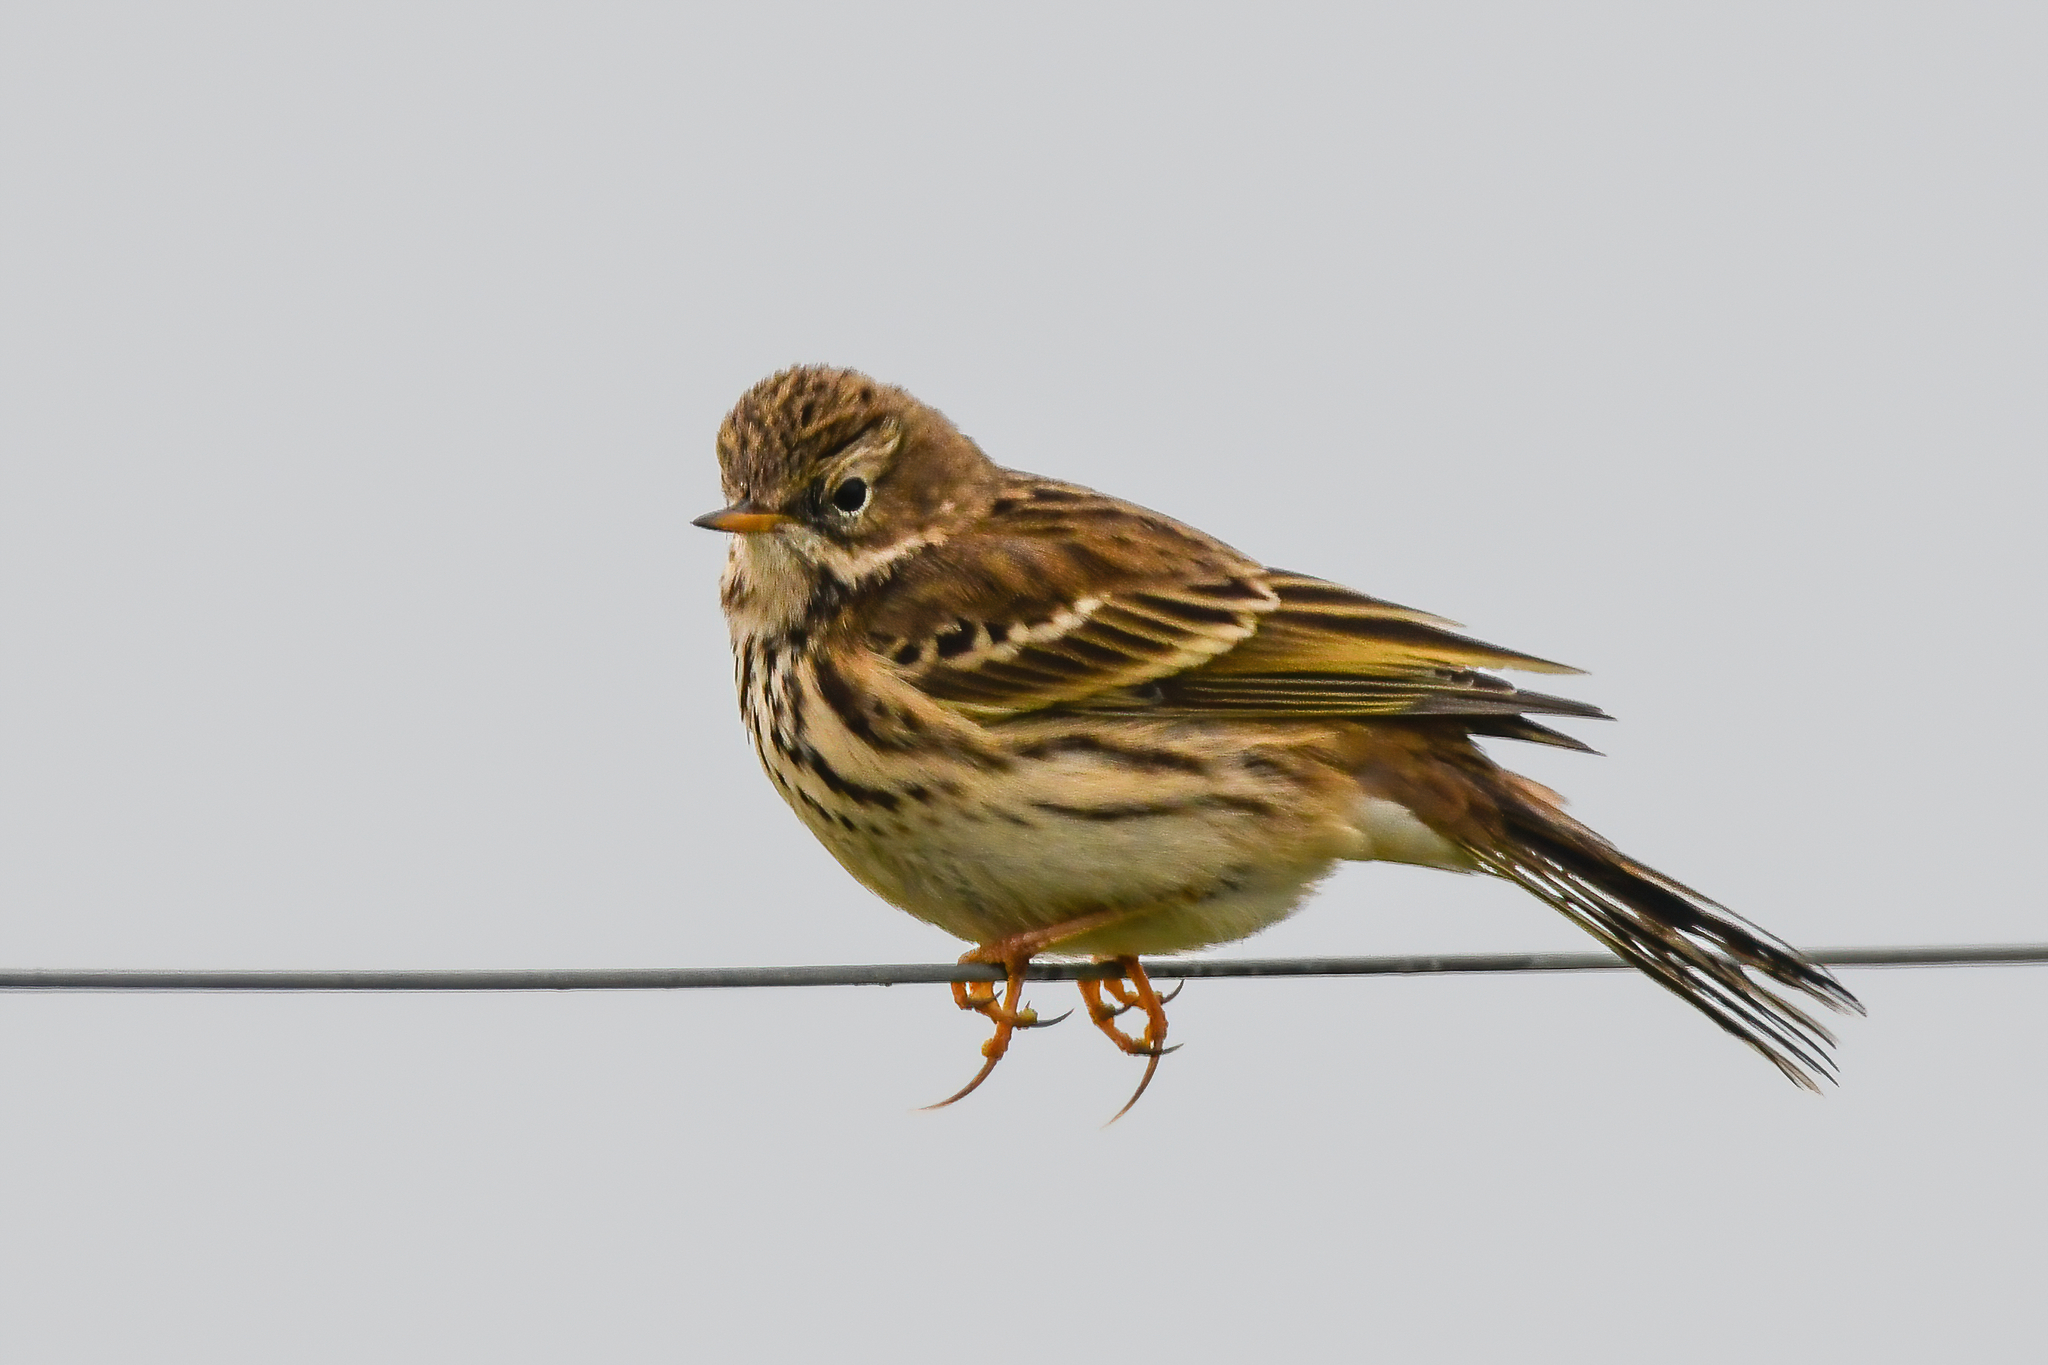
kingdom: Animalia
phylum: Chordata
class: Aves
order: Passeriformes
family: Motacillidae
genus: Anthus
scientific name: Anthus pratensis
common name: Meadow pipit
